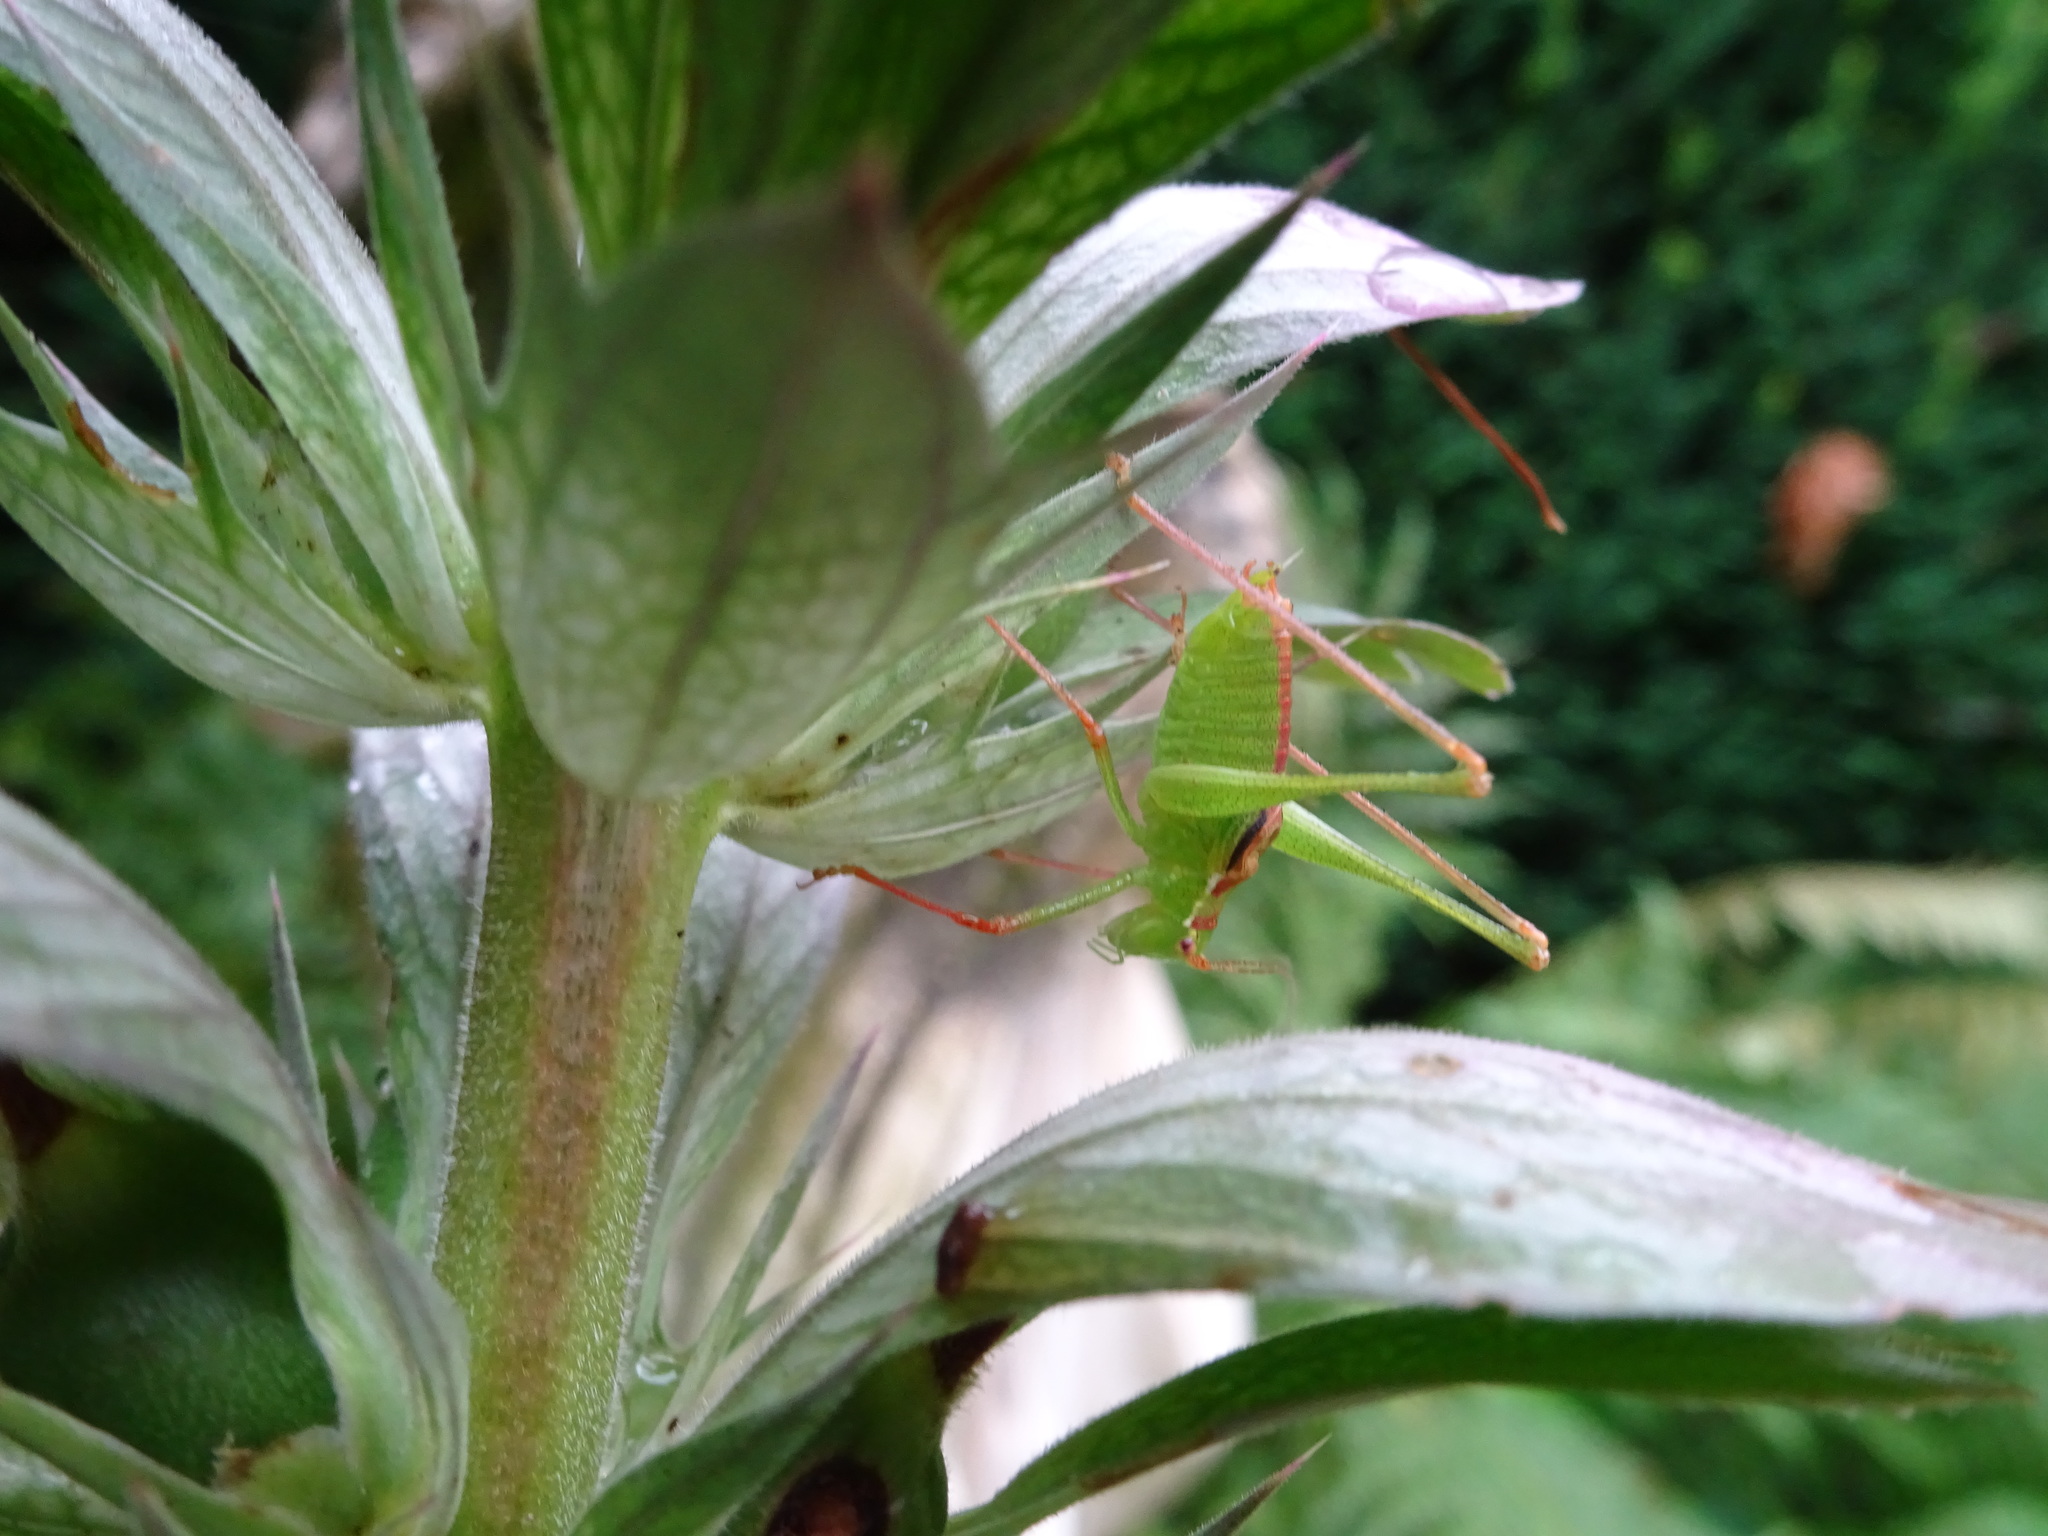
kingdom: Animalia
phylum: Arthropoda
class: Insecta
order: Orthoptera
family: Tettigoniidae
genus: Leptophyes
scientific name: Leptophyes punctatissima
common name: Speckled bush-cricket
